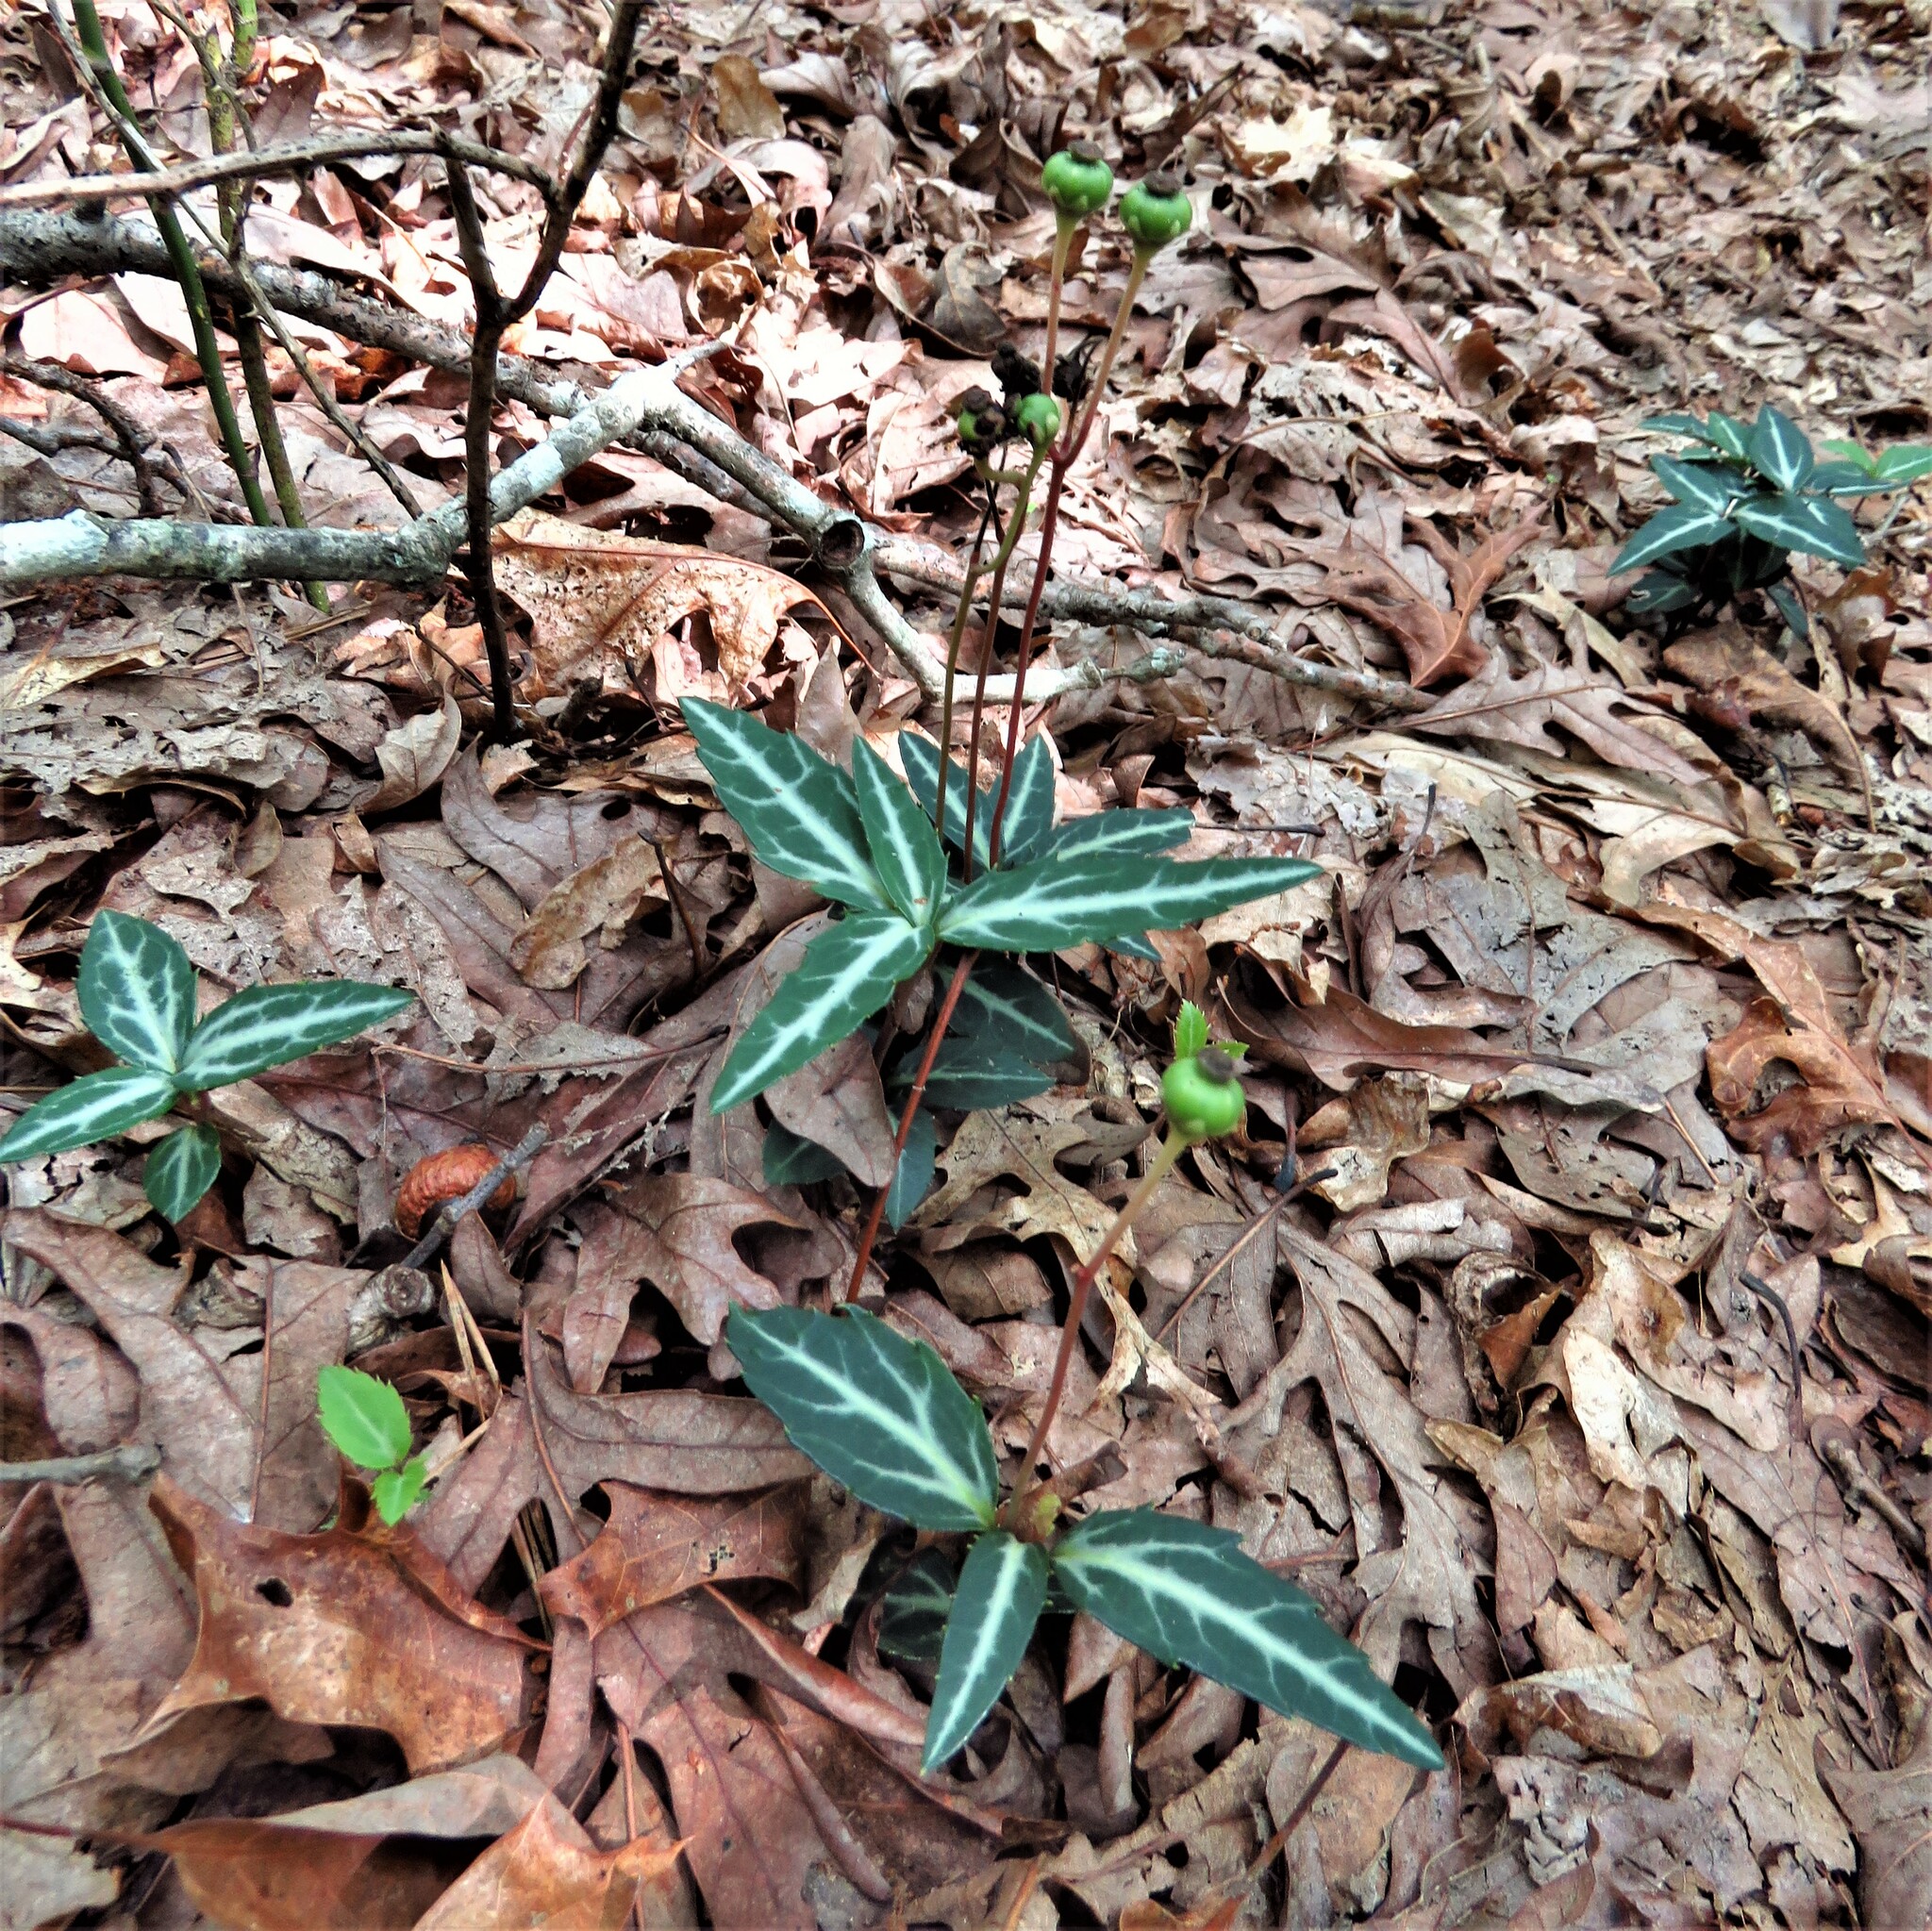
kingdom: Plantae
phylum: Tracheophyta
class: Magnoliopsida
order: Ericales
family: Ericaceae
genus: Chimaphila
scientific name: Chimaphila maculata
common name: Spotted pipsissewa
